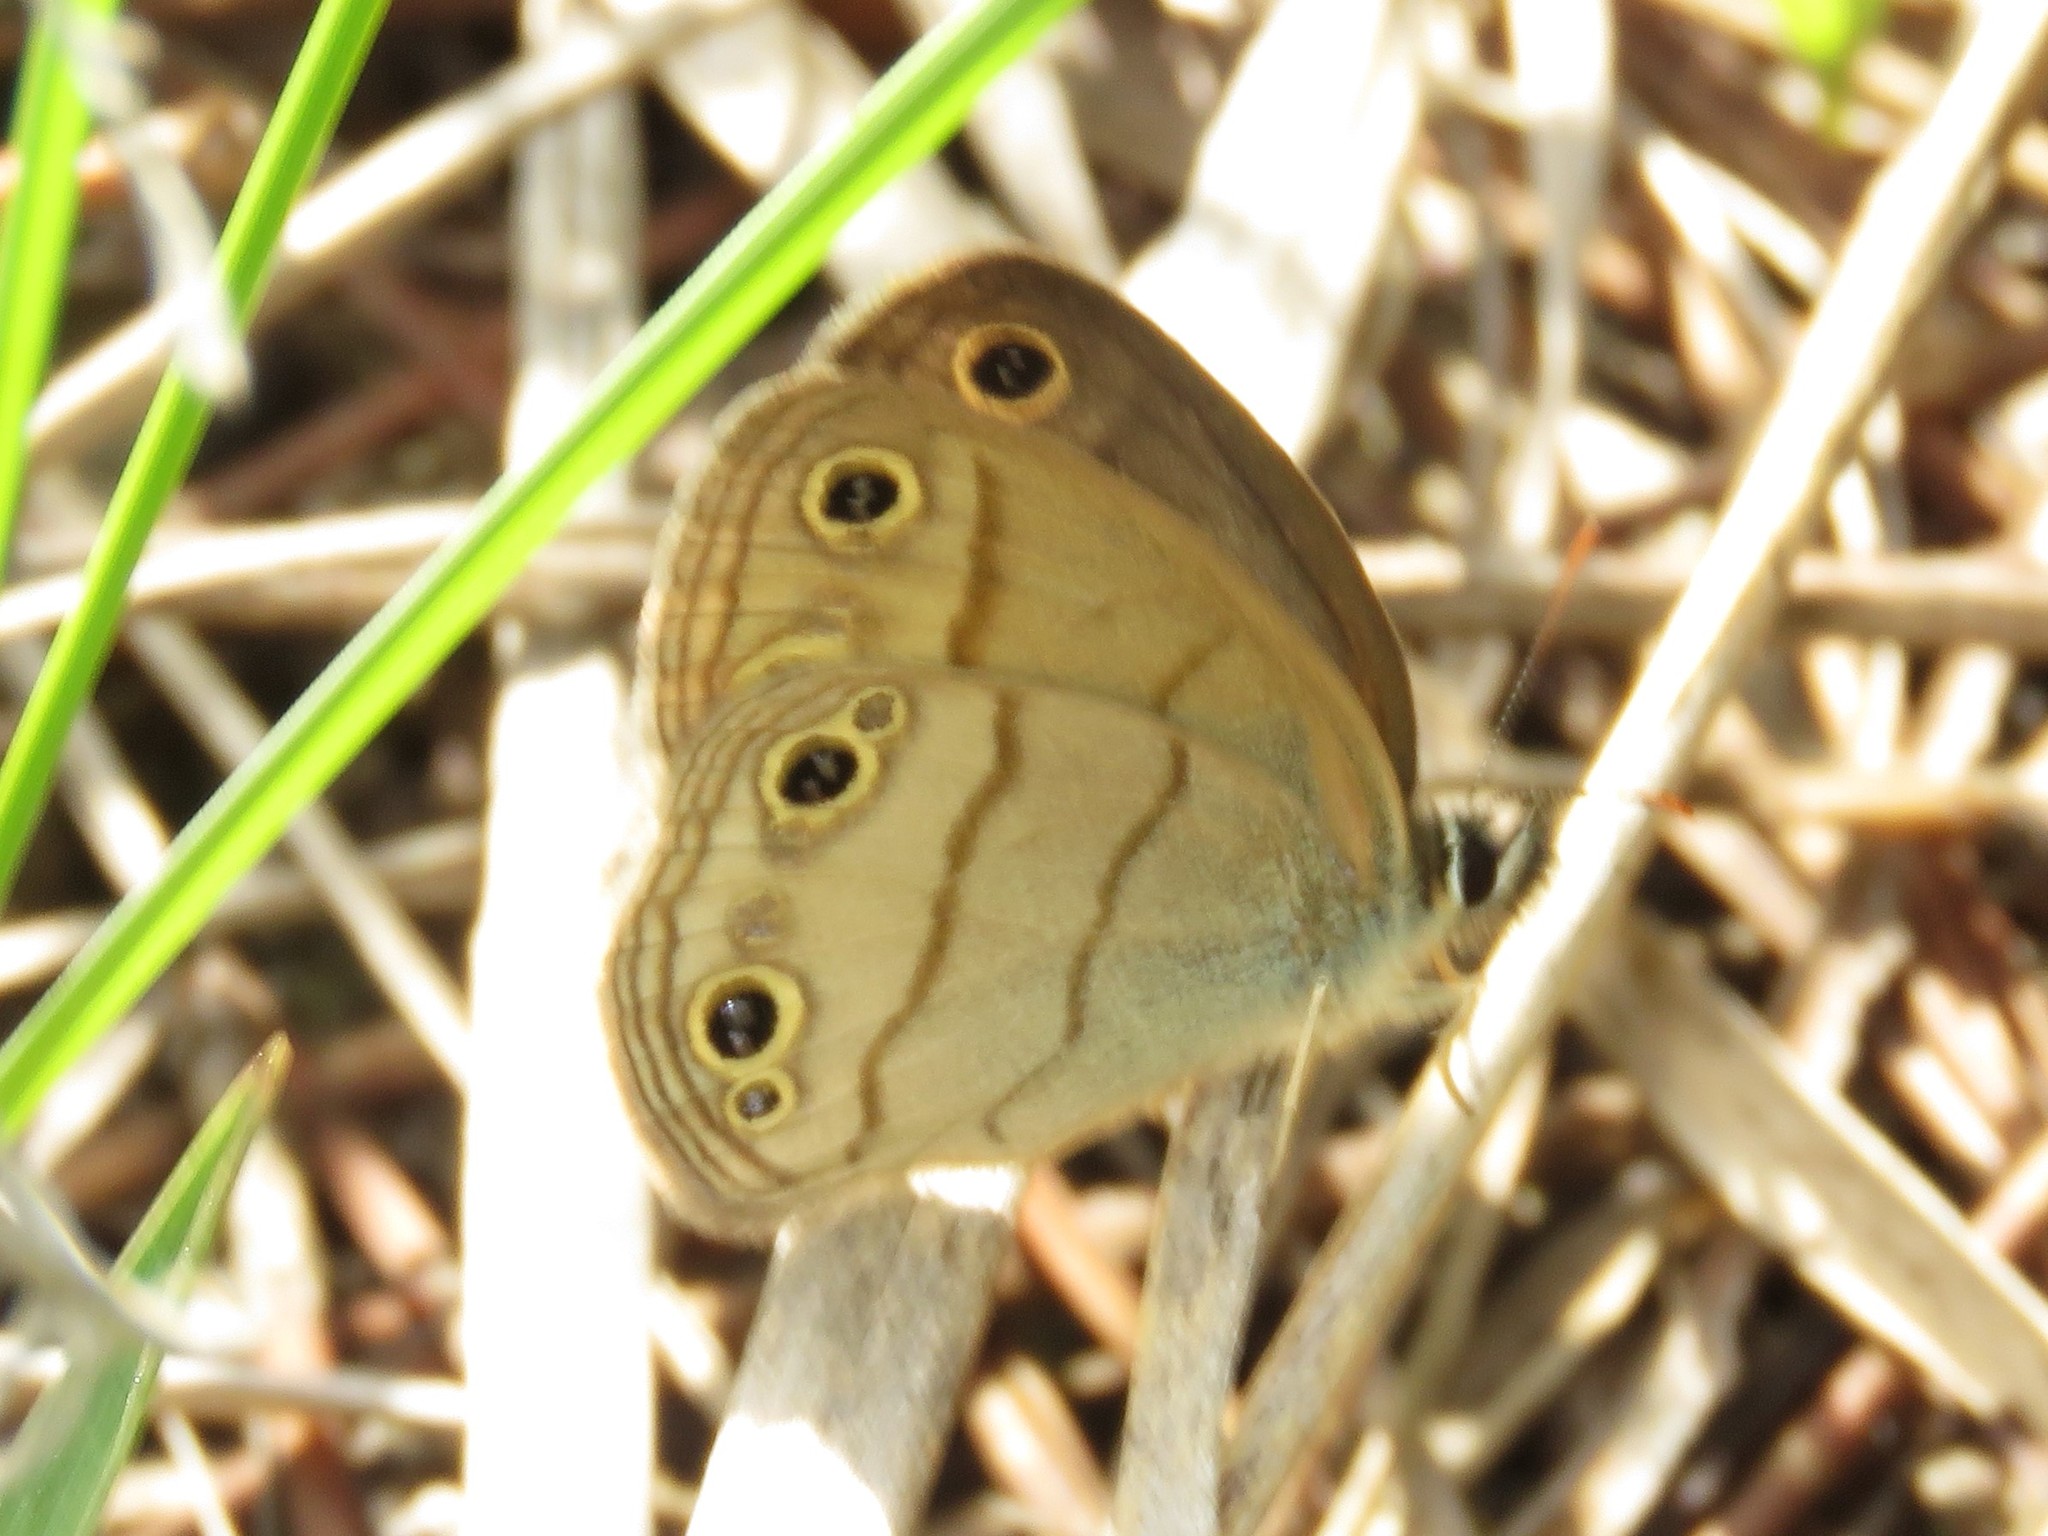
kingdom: Animalia
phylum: Arthropoda
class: Insecta
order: Lepidoptera
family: Nymphalidae
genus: Euptychia
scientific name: Euptychia cymela
